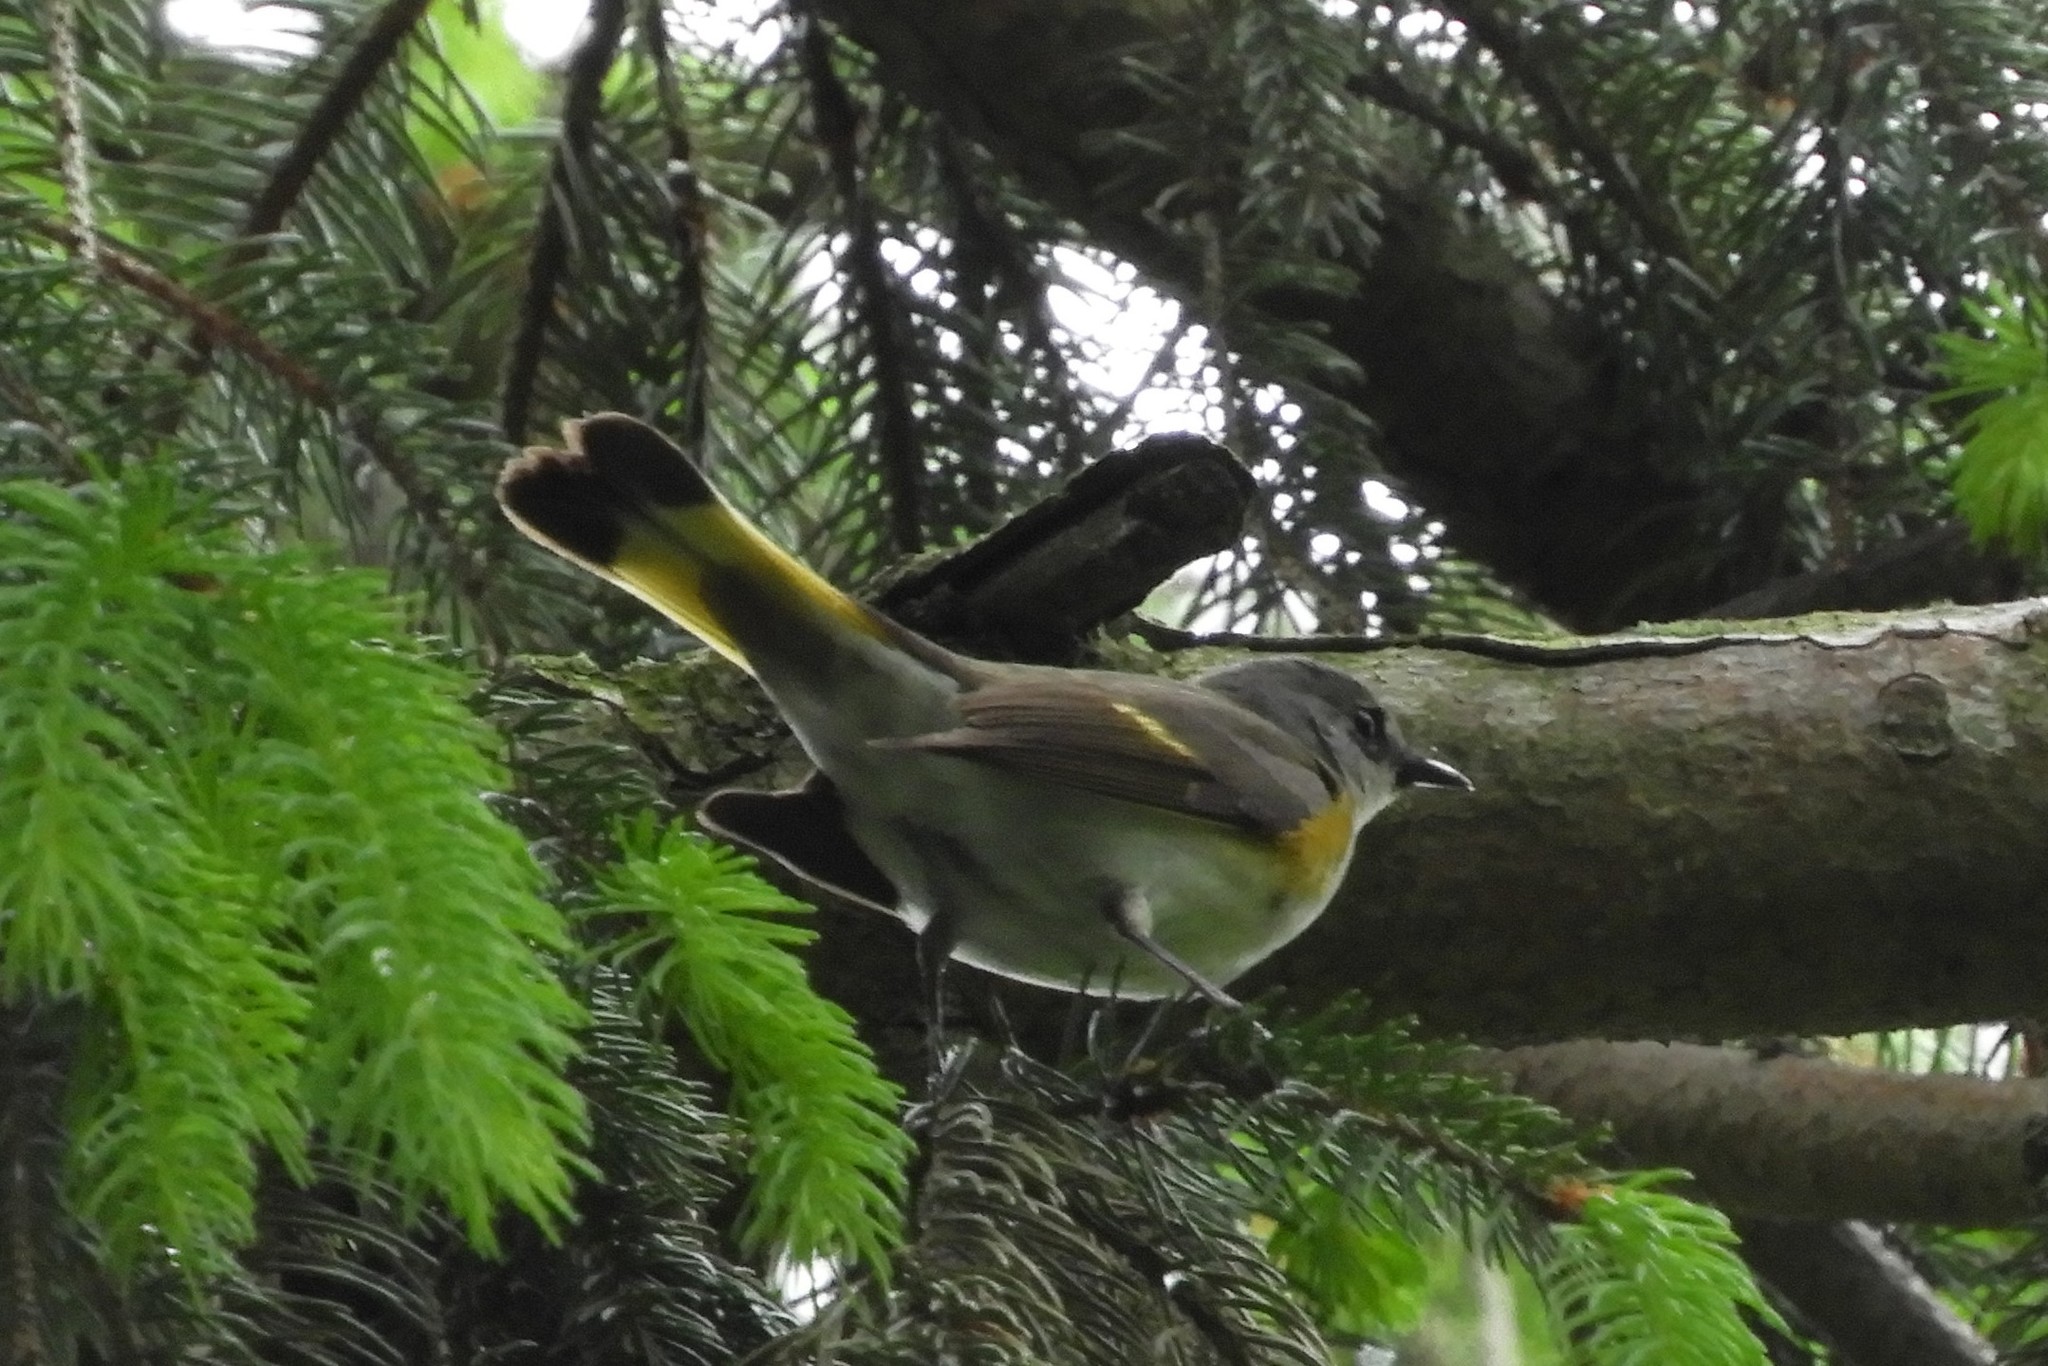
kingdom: Animalia
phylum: Chordata
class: Aves
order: Passeriformes
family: Parulidae
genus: Setophaga
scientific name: Setophaga ruticilla
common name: American redstart
